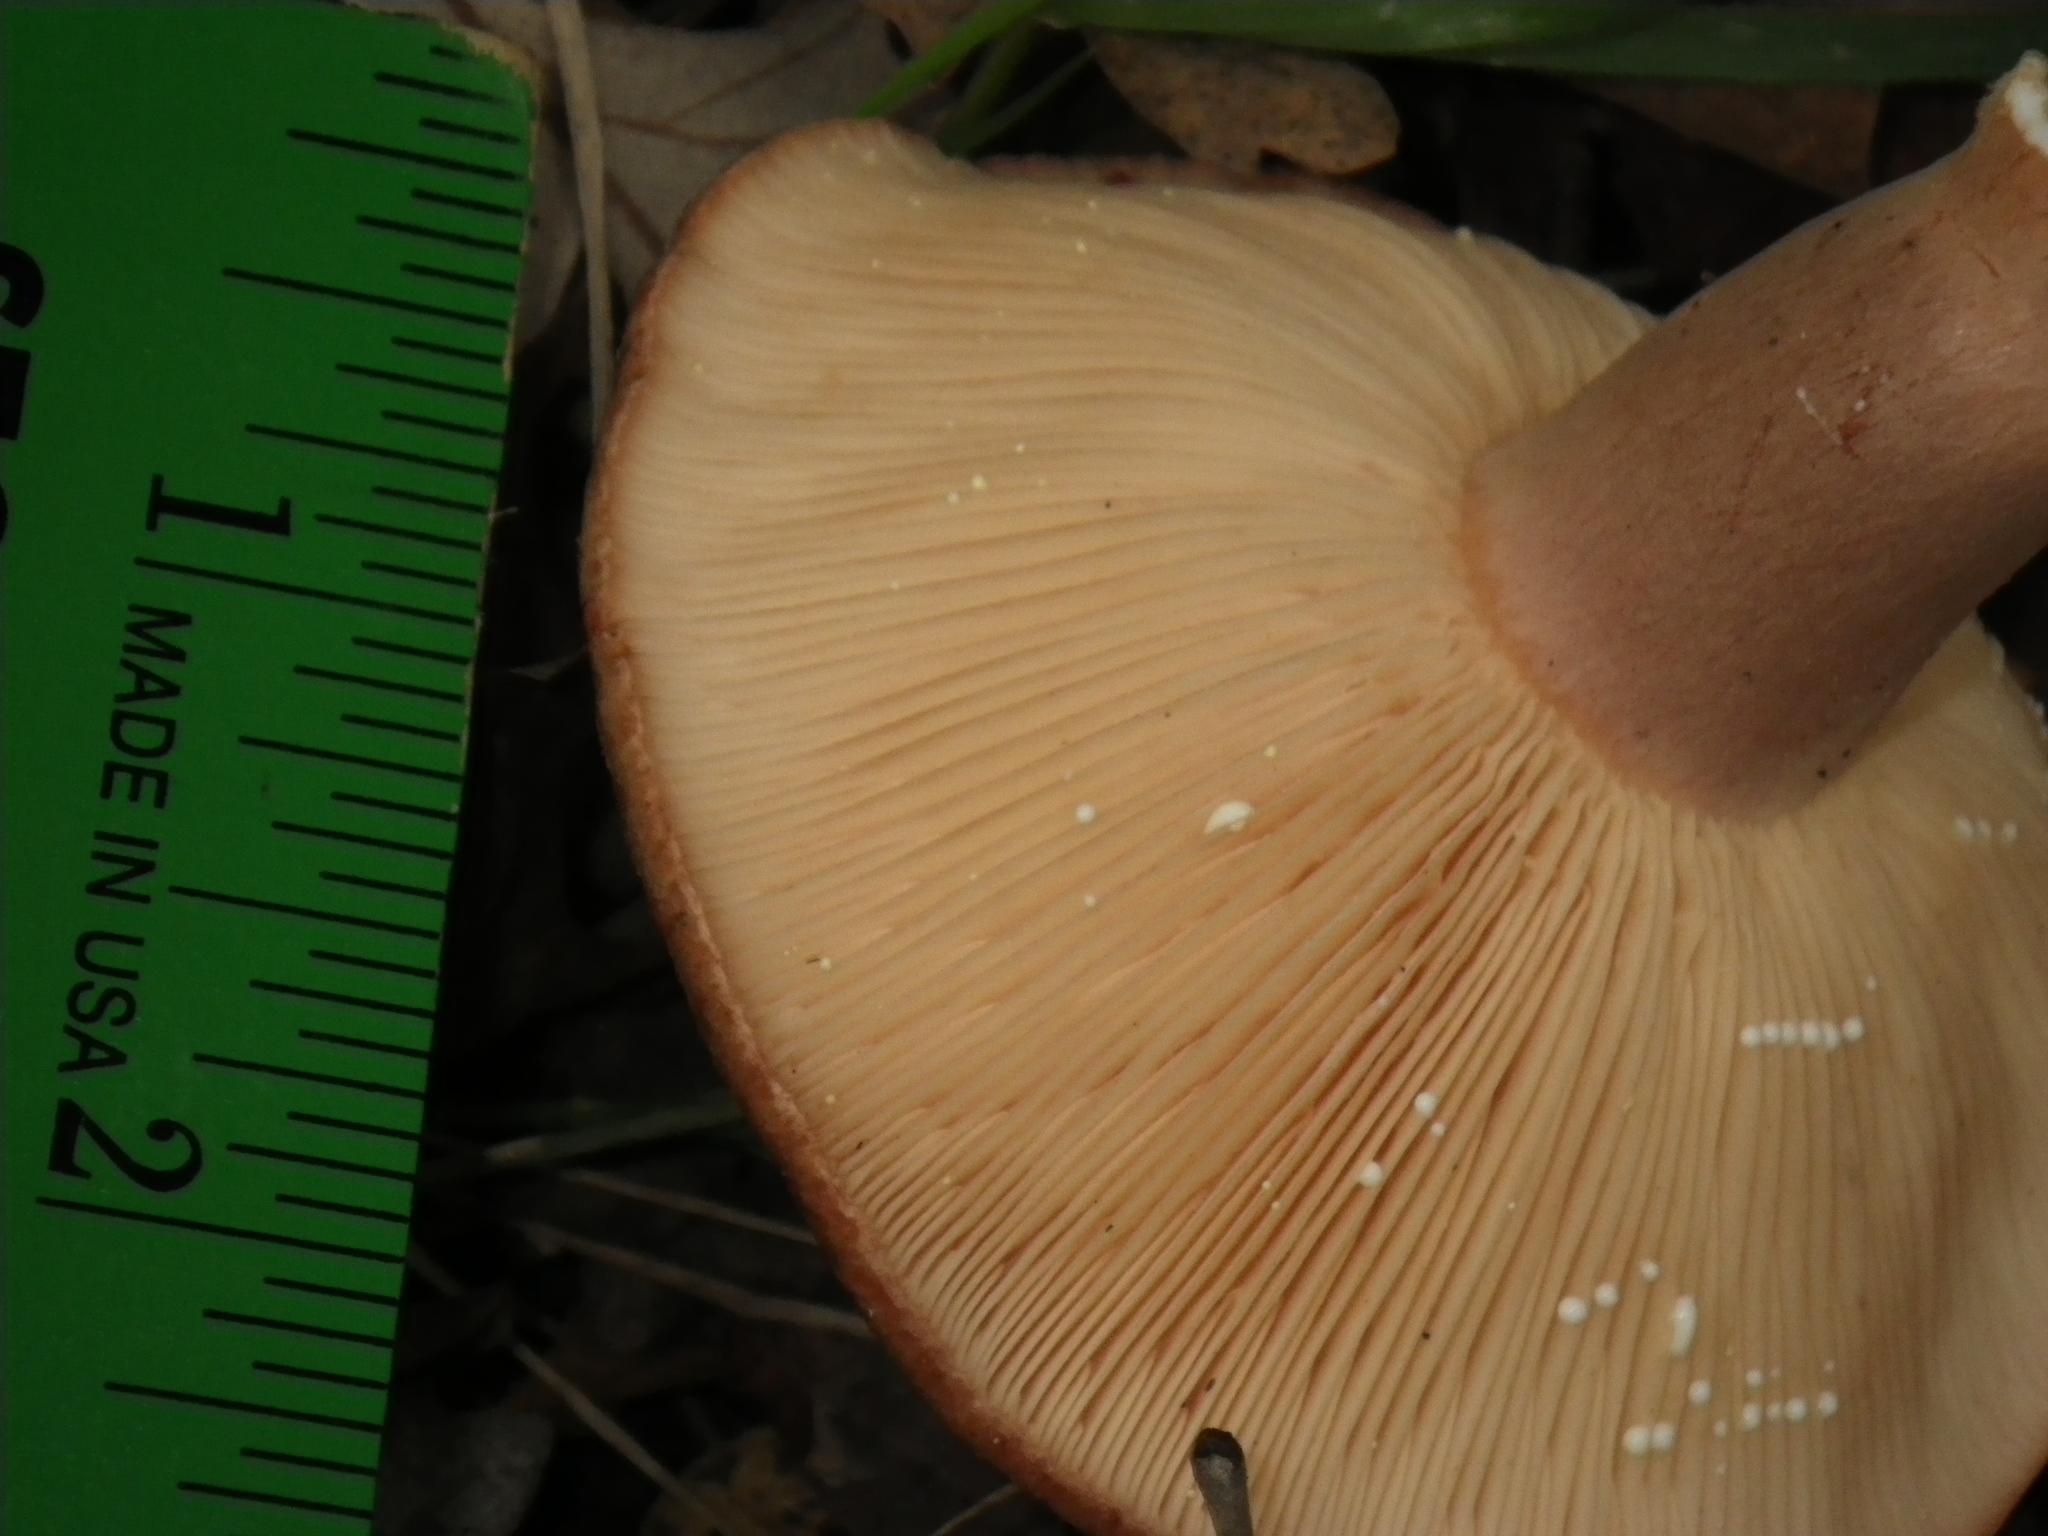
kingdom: Fungi
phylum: Basidiomycota
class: Agaricomycetes
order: Russulales
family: Russulaceae
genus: Lactarius
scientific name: Lactarius xanthogalactus
